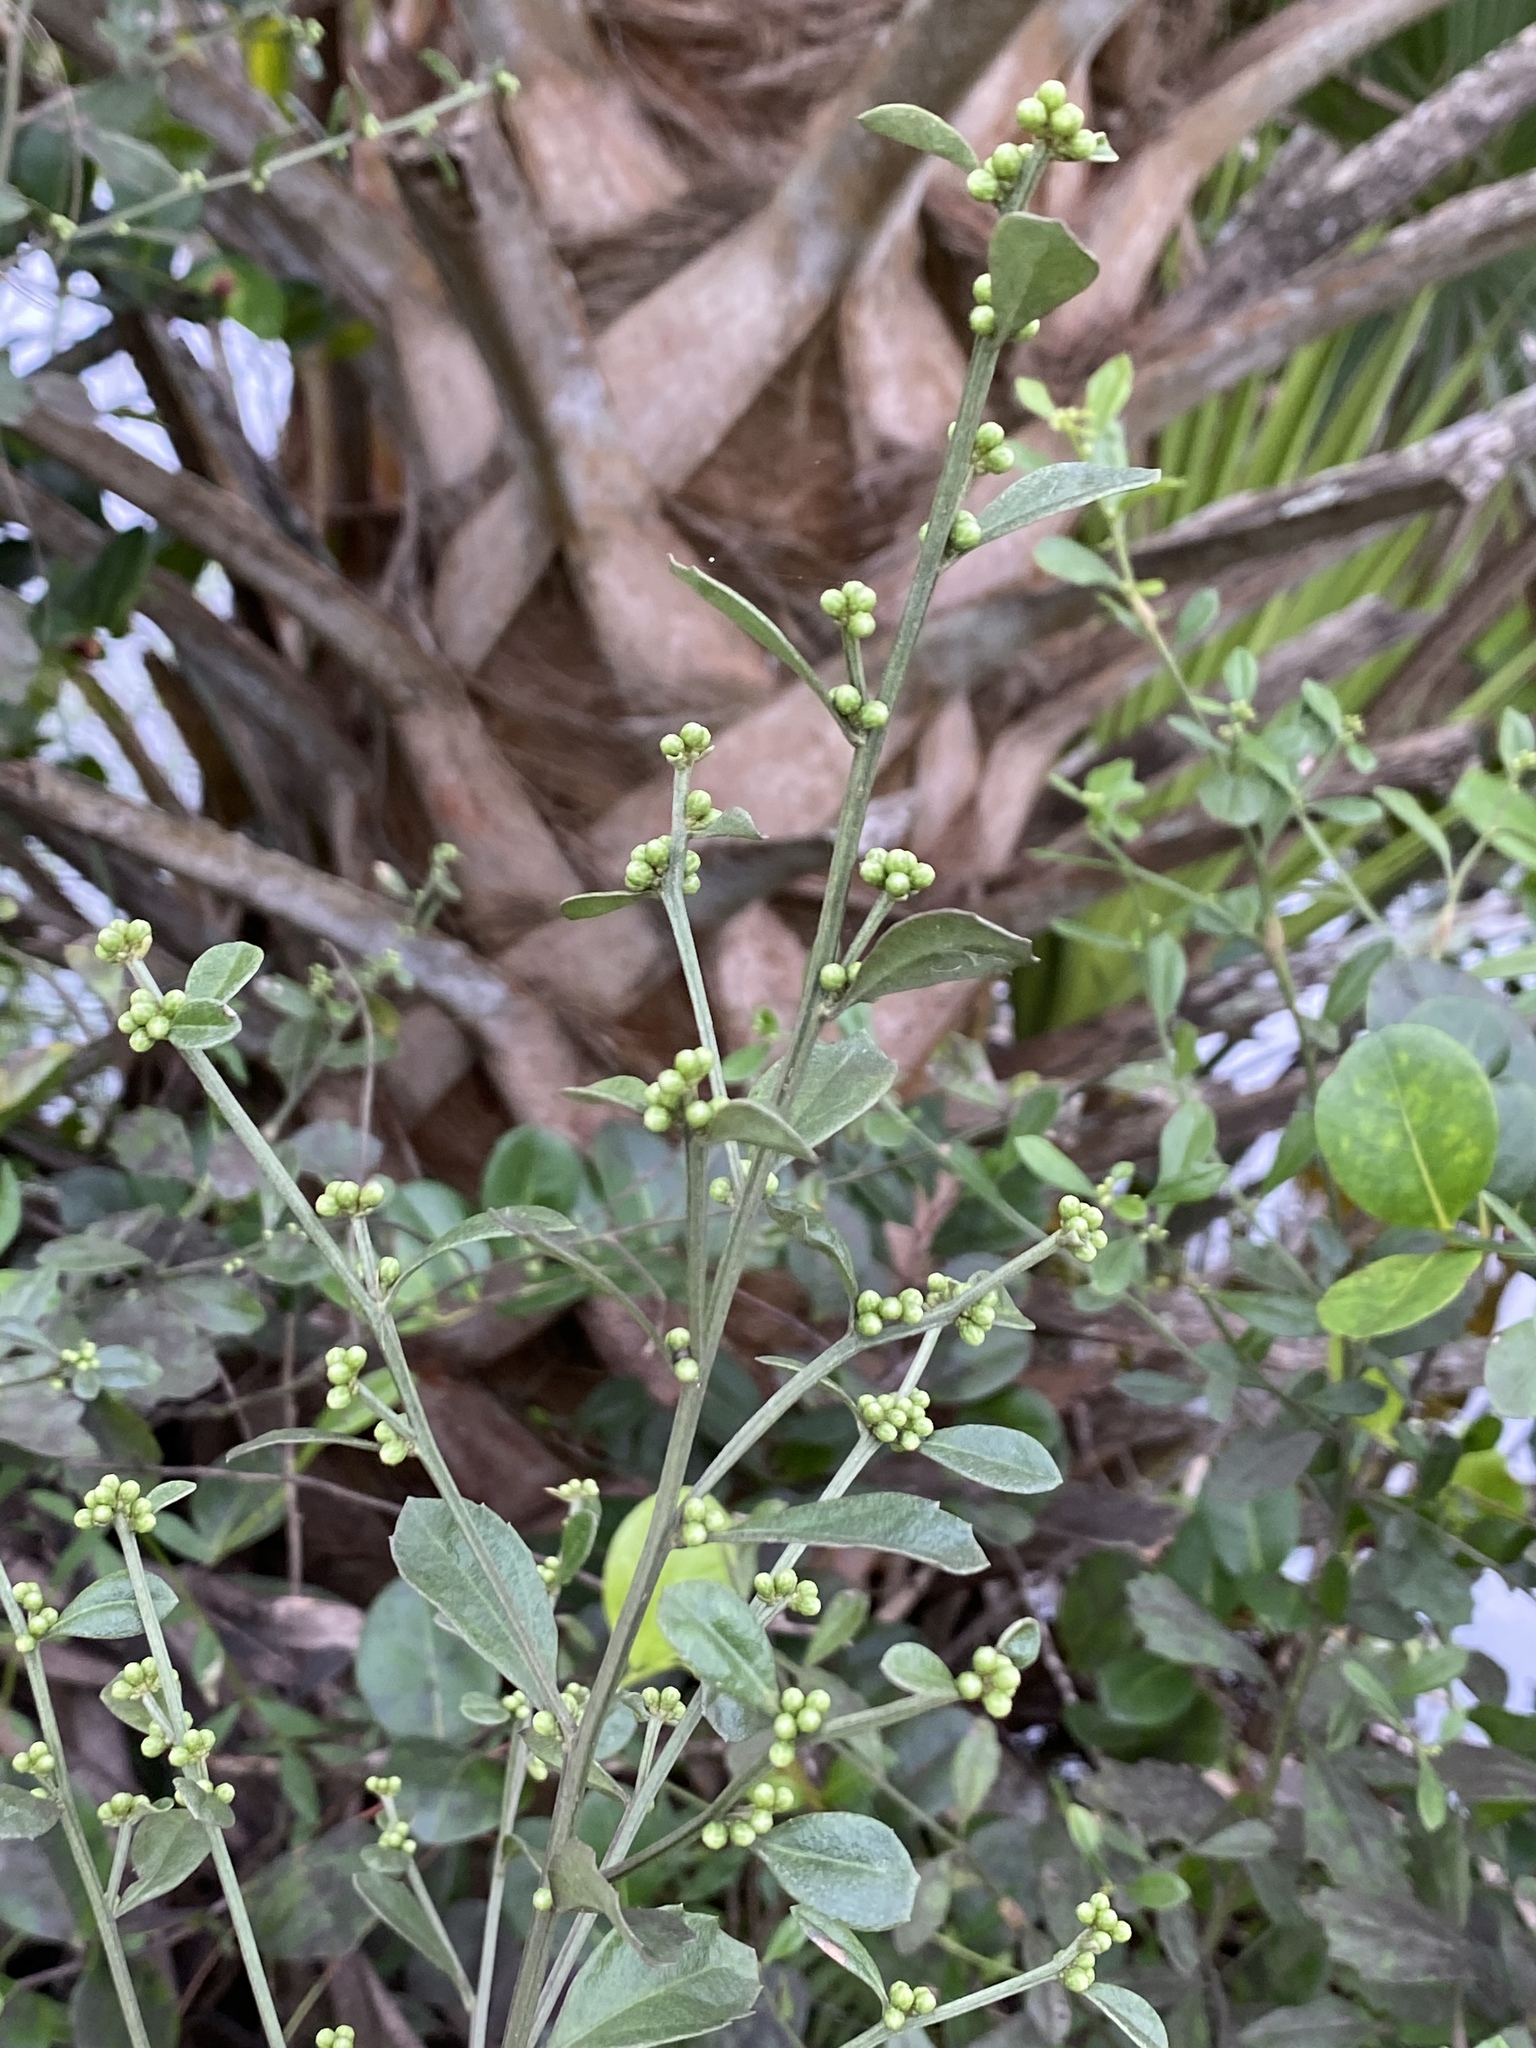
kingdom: Plantae
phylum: Tracheophyta
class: Magnoliopsida
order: Asterales
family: Asteraceae
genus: Baccharis
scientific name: Baccharis glomeruliflora
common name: Silverling groundsel bush
